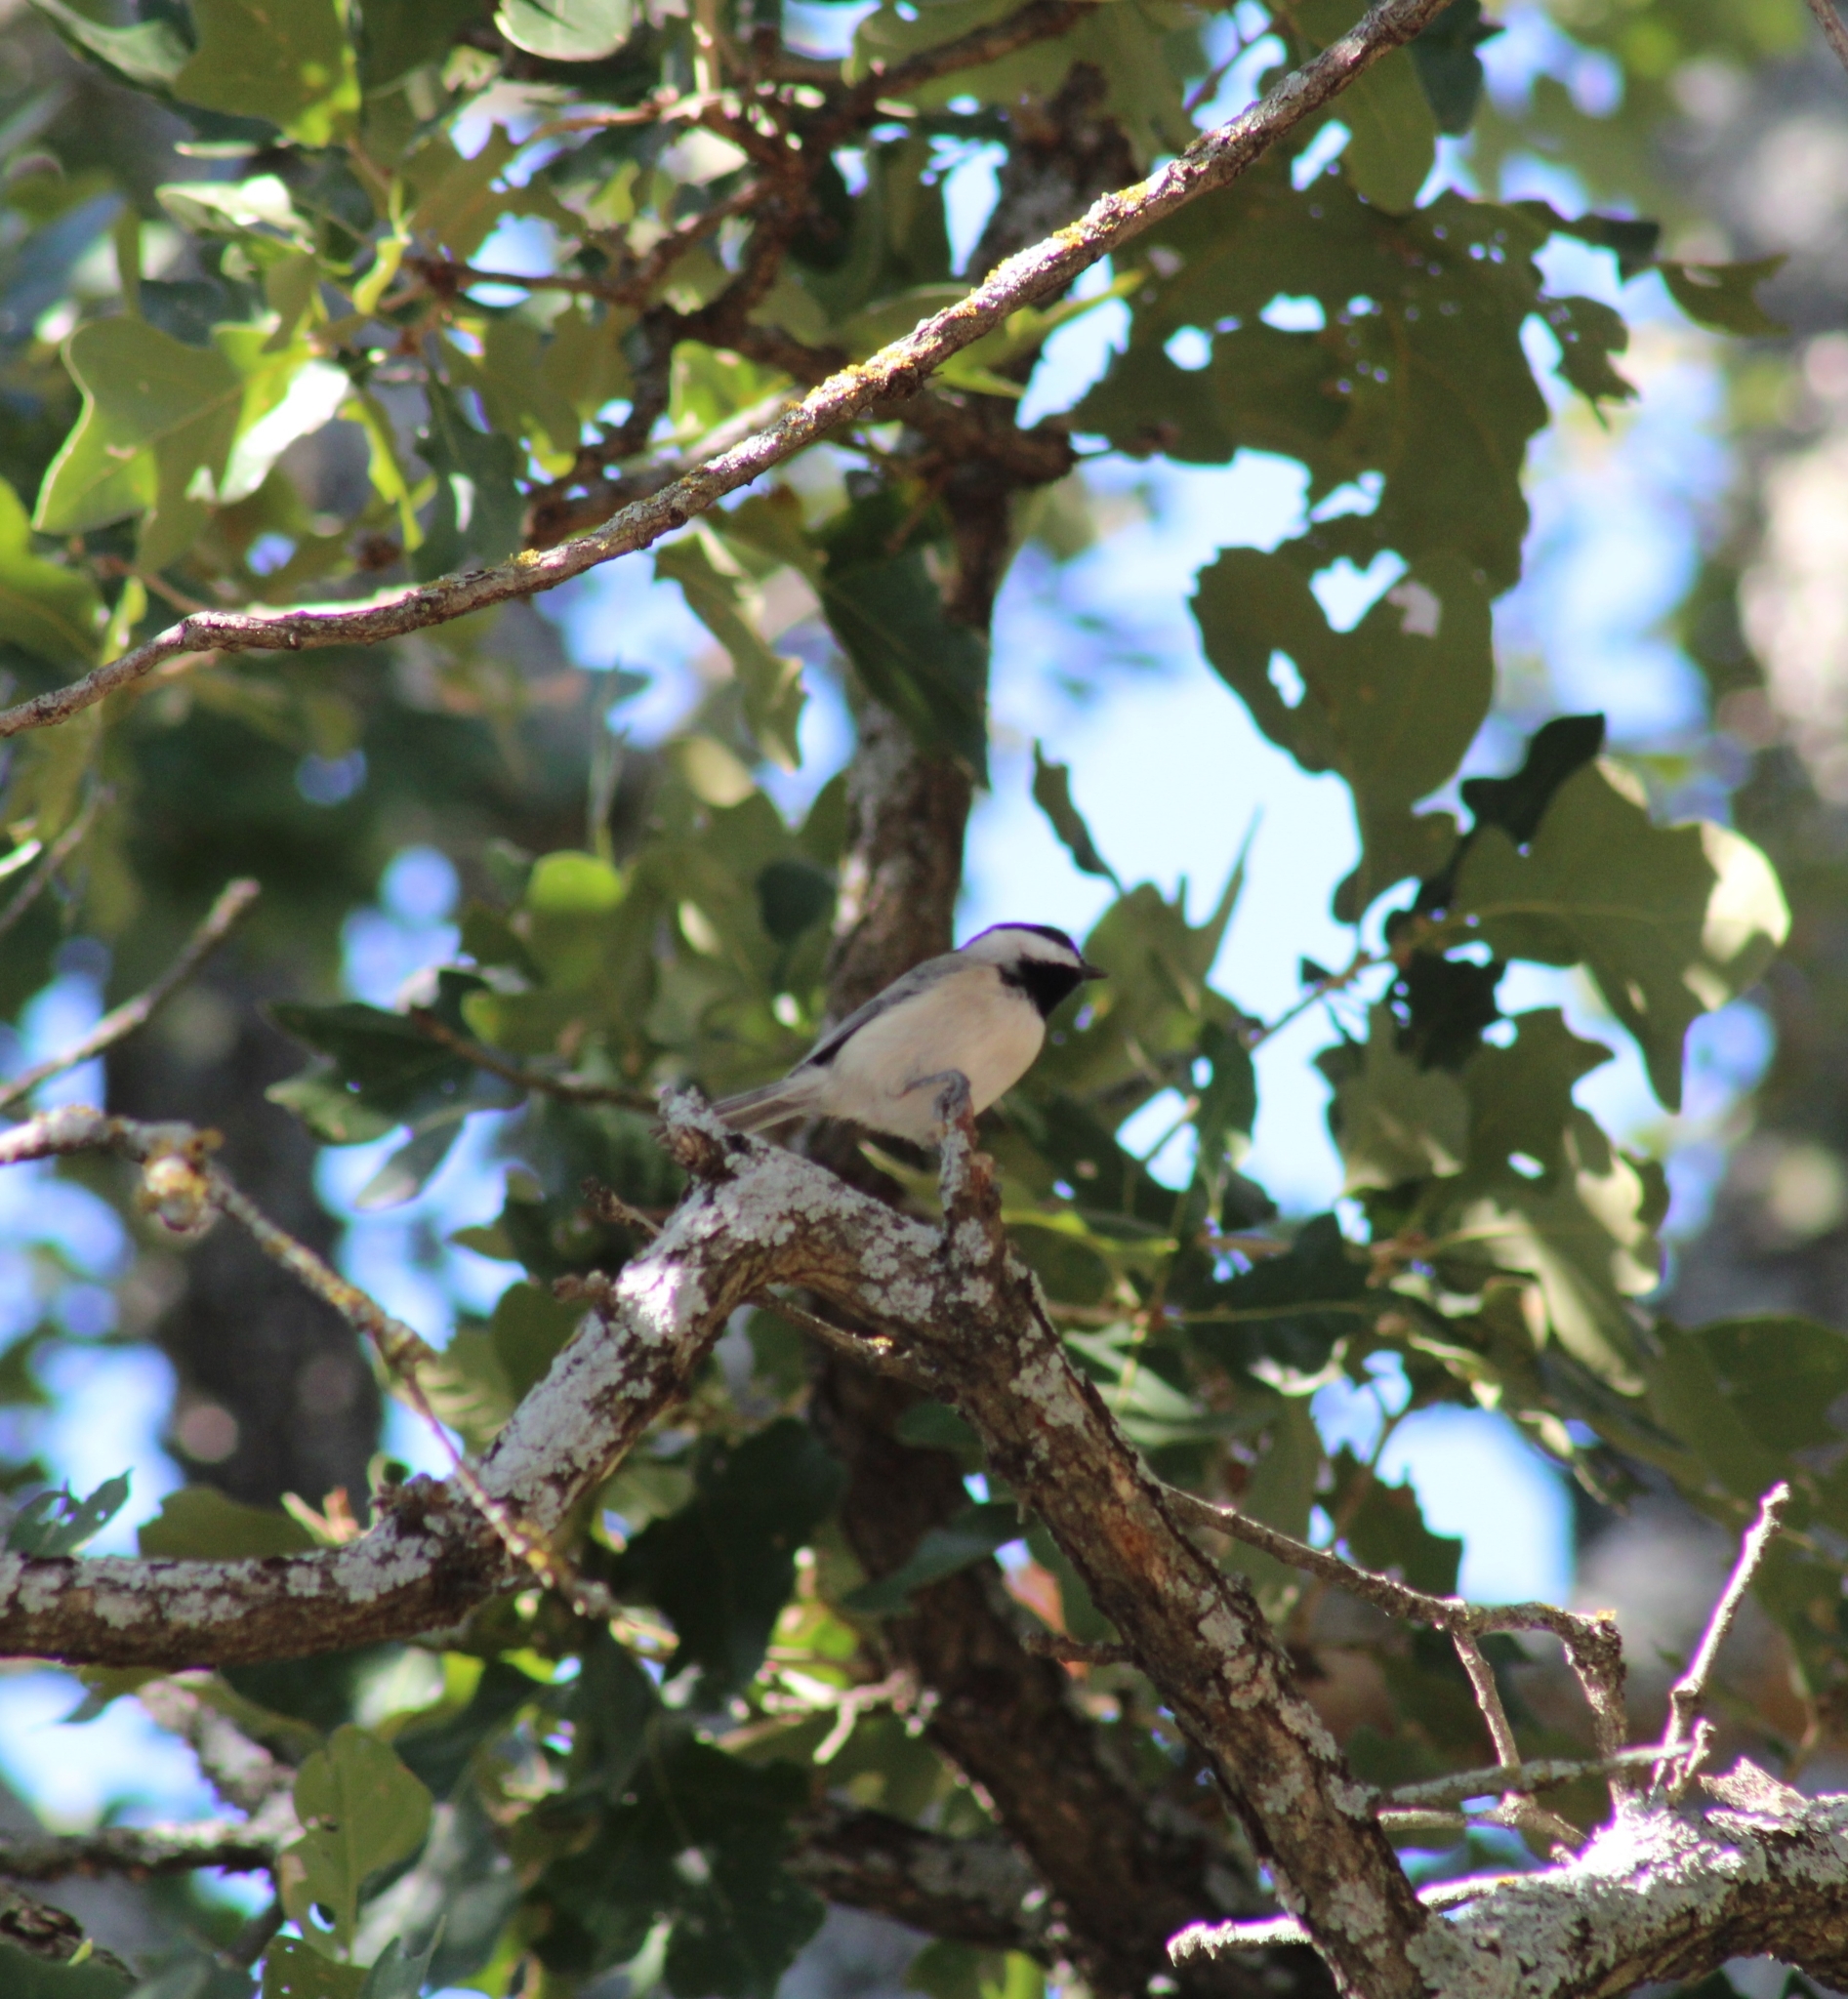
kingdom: Animalia
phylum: Chordata
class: Aves
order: Passeriformes
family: Paridae
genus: Poecile
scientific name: Poecile carolinensis
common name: Carolina chickadee
